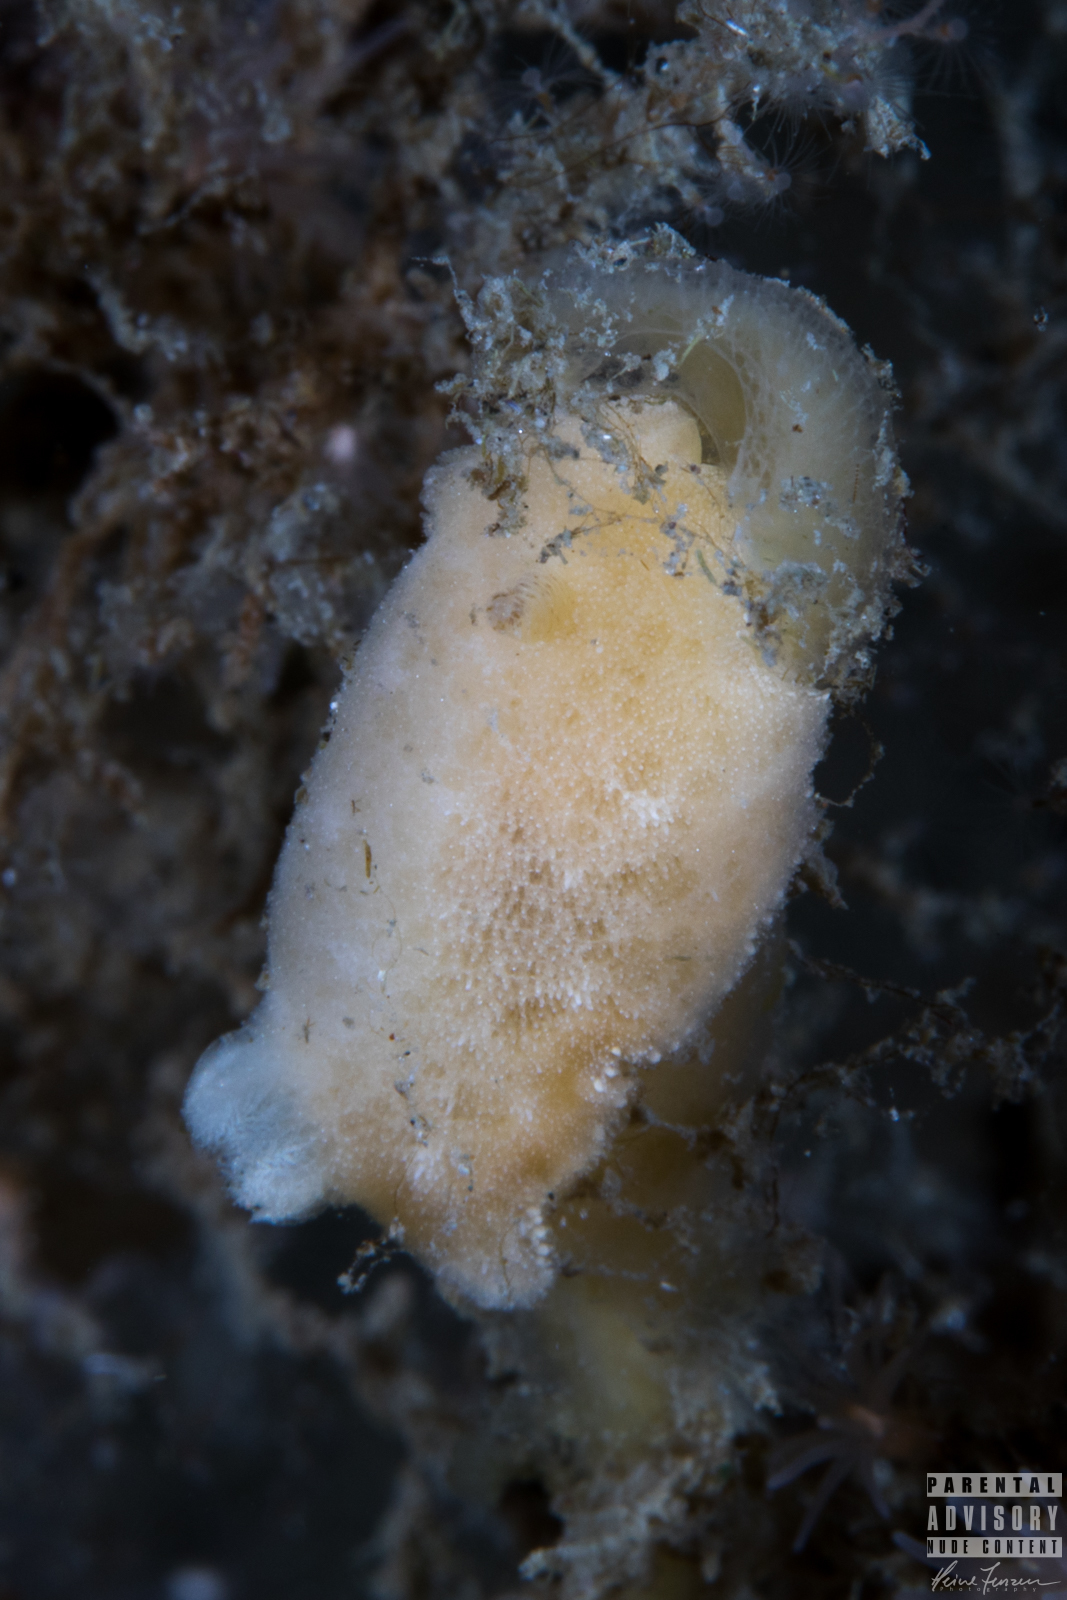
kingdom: Animalia
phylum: Mollusca
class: Gastropoda
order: Nudibranchia
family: Discodorididae
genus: Jorunna
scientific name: Jorunna tomentosa
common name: Grey sea slug
